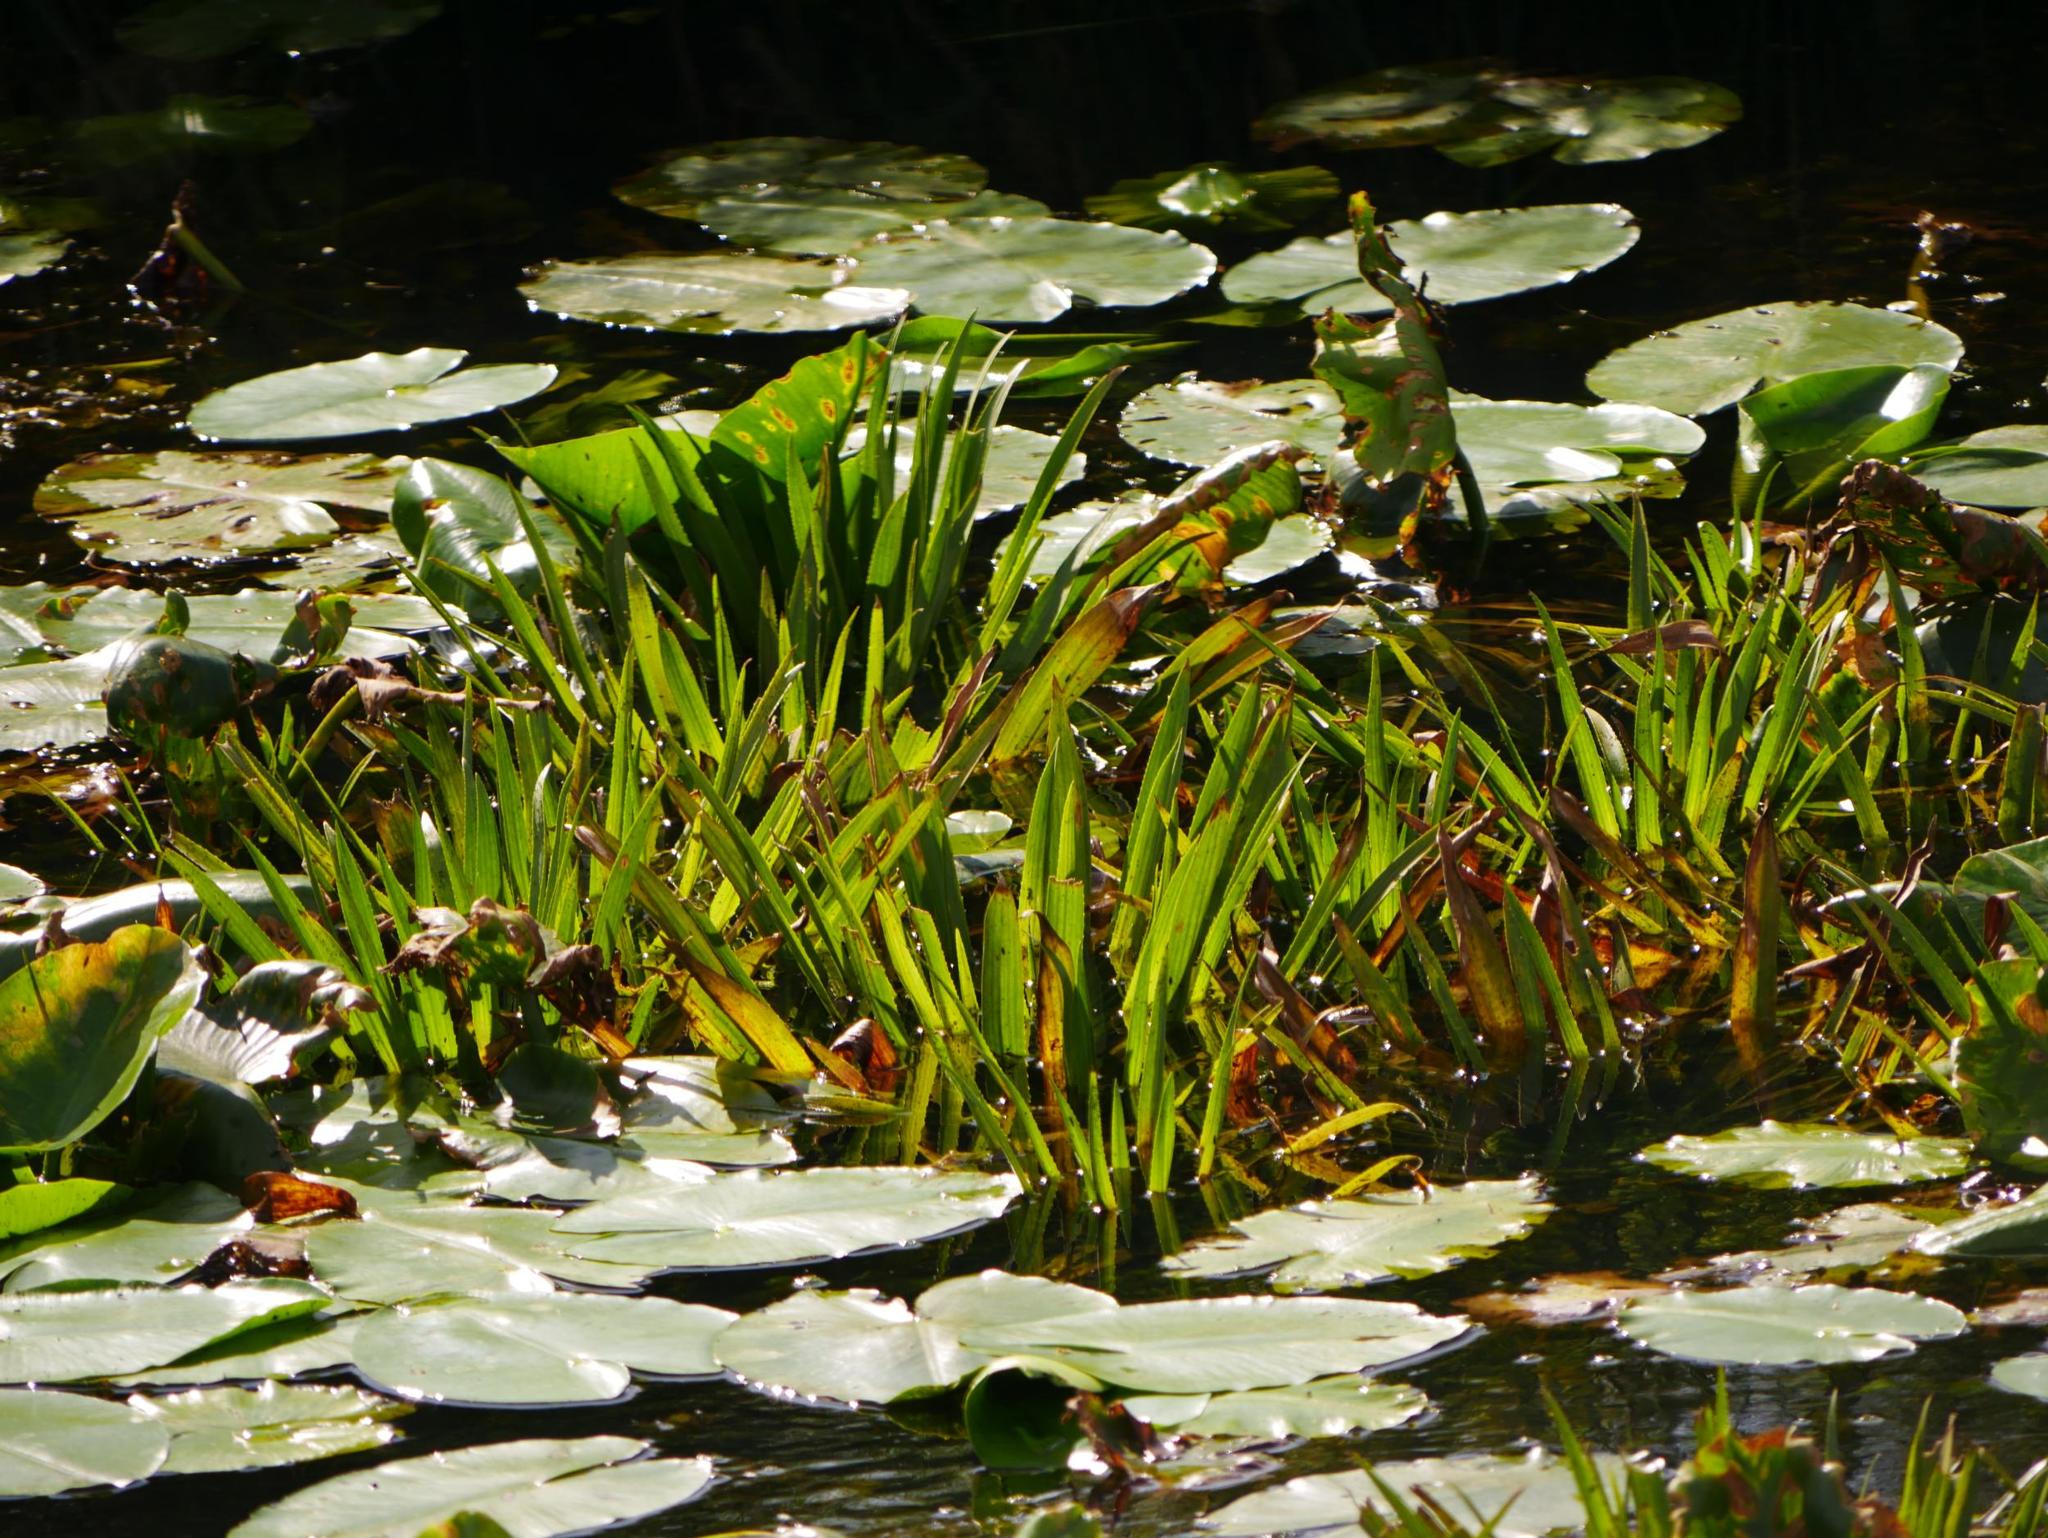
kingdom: Plantae
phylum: Tracheophyta
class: Liliopsida
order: Alismatales
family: Hydrocharitaceae
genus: Stratiotes
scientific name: Stratiotes aloides
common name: Water-soldier
